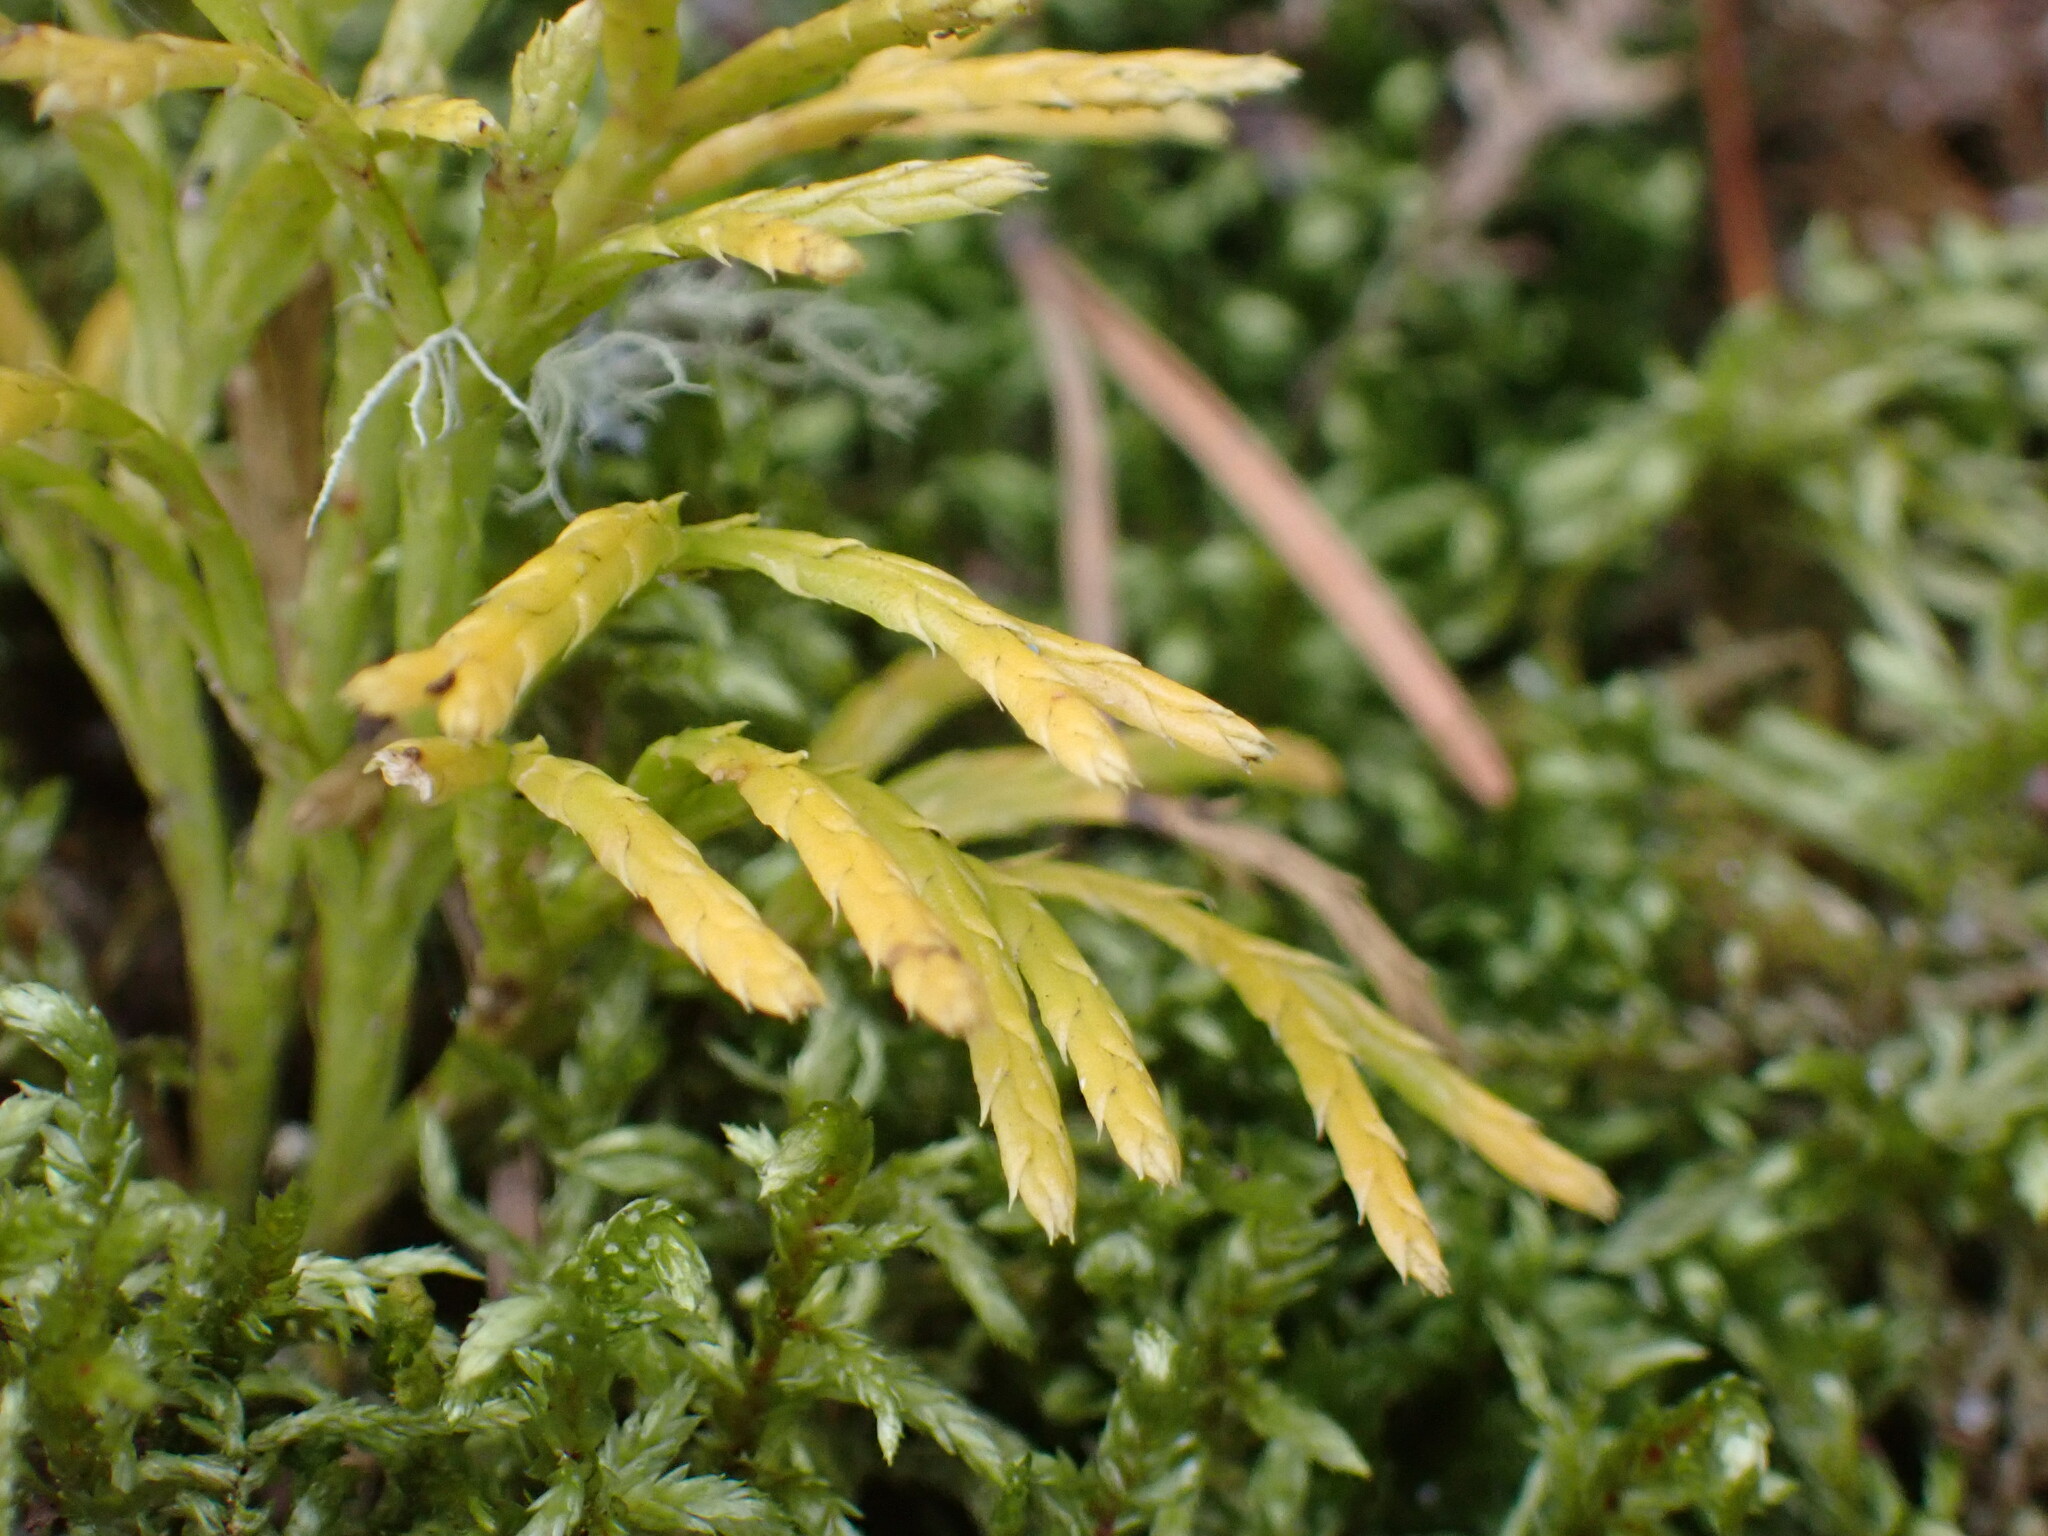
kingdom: Plantae
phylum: Tracheophyta
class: Lycopodiopsida
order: Lycopodiales
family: Lycopodiaceae
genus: Diphasiastrum
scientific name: Diphasiastrum complanatum
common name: Northern running-pine
